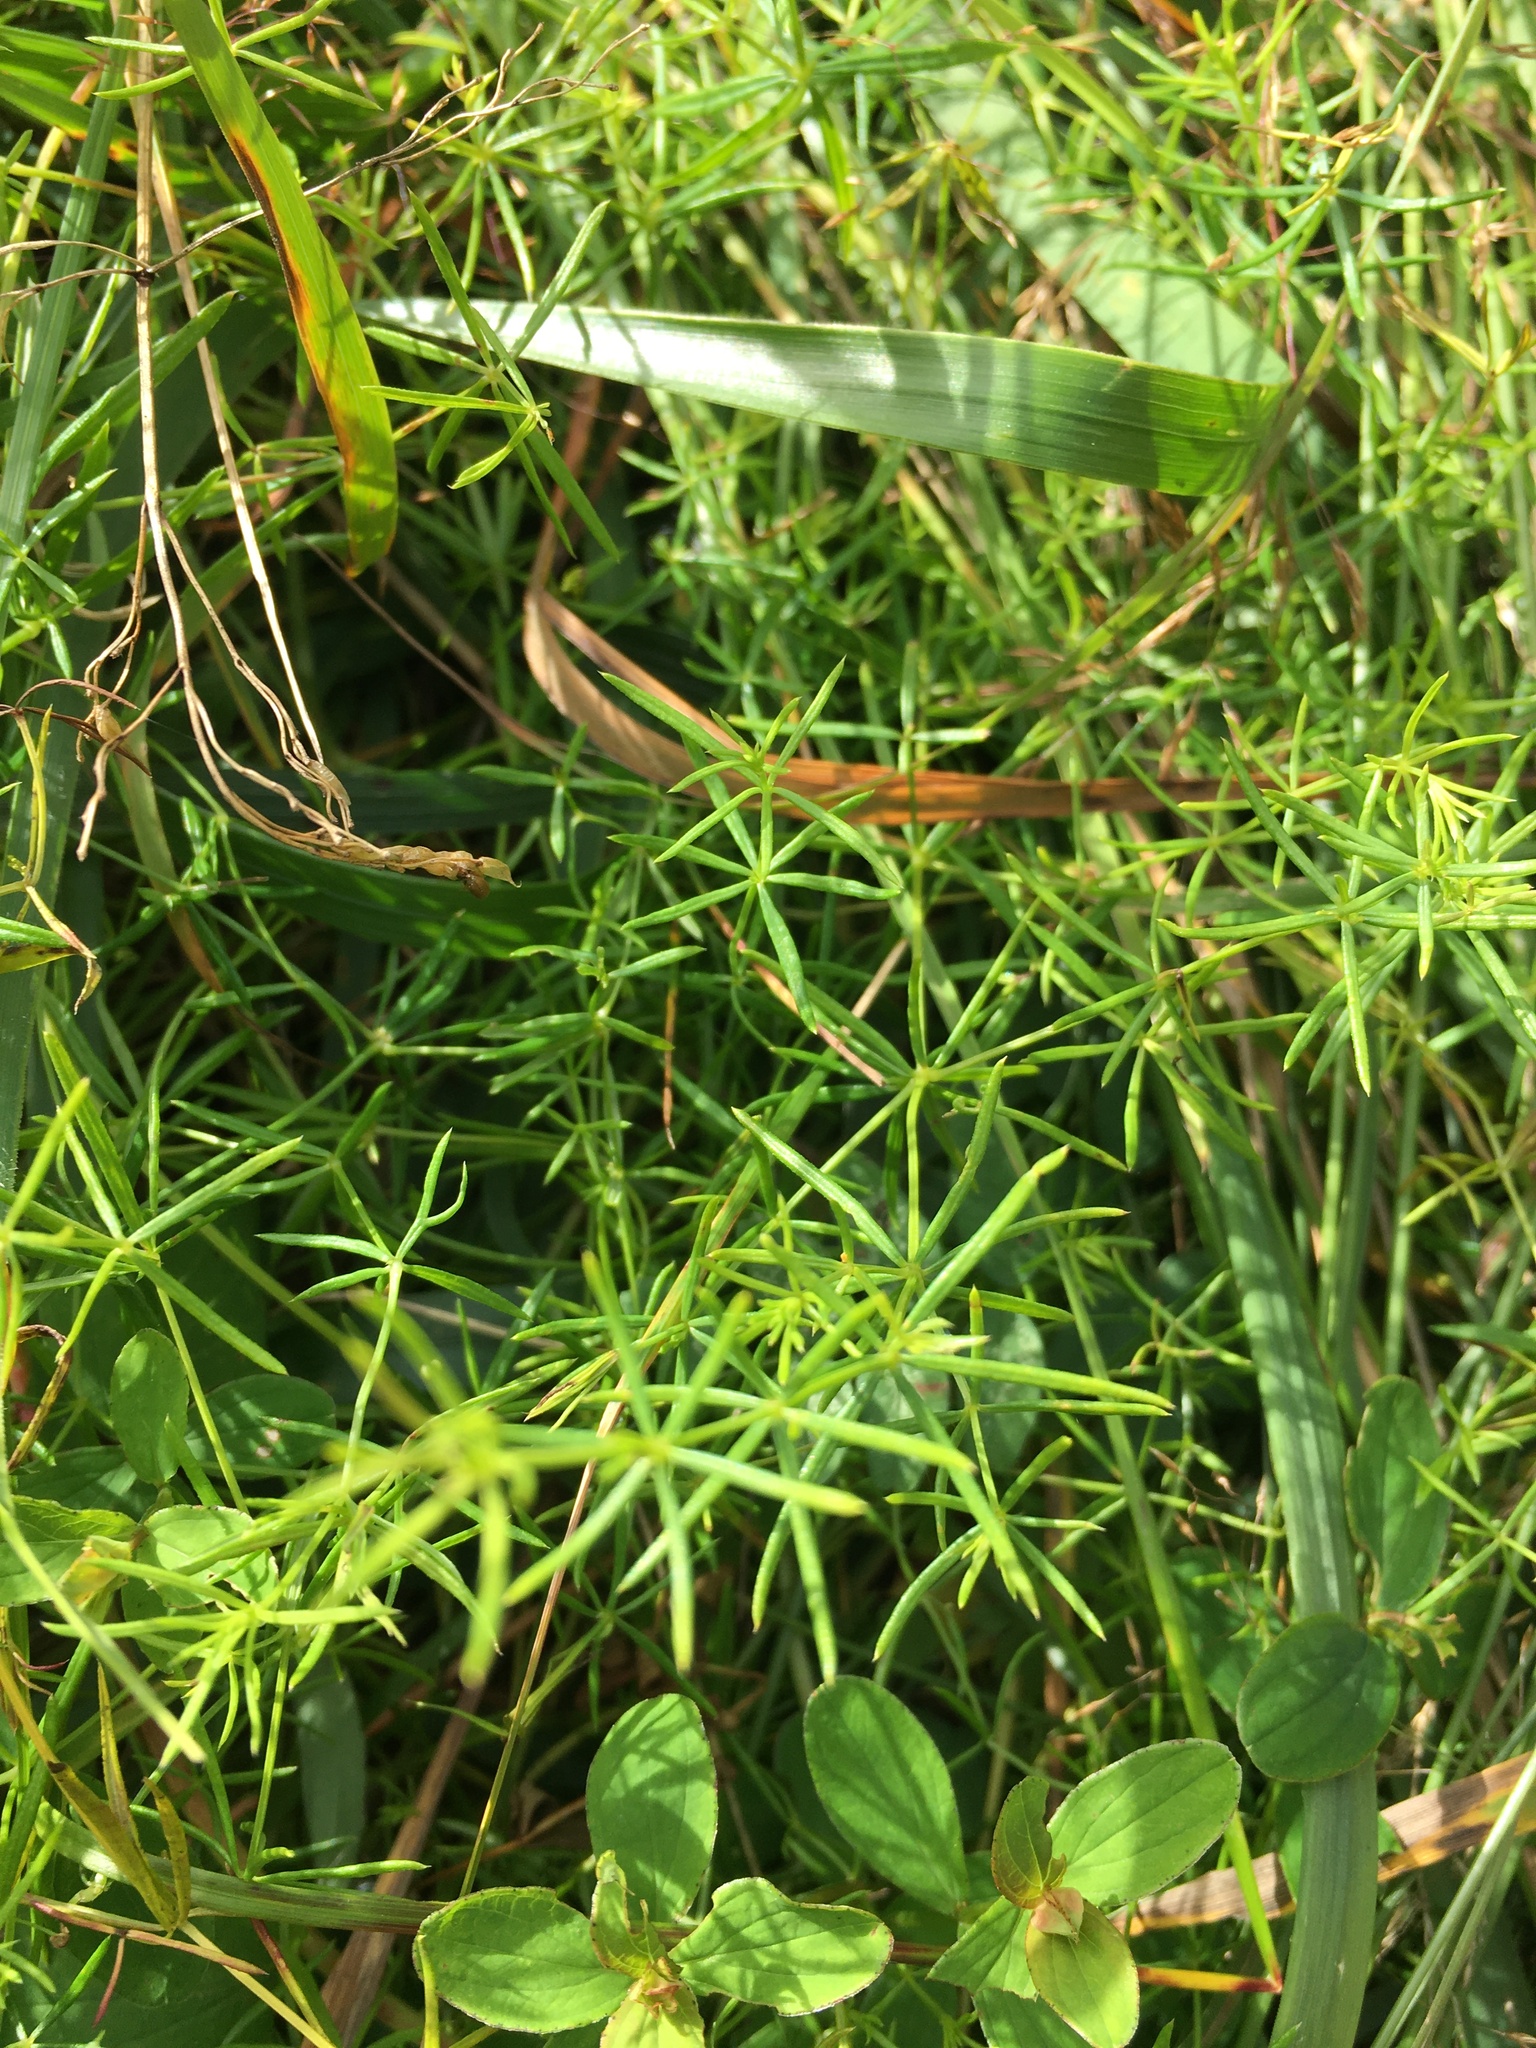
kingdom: Plantae
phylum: Tracheophyta
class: Magnoliopsida
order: Gentianales
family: Rubiaceae
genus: Galium
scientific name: Galium verum
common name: Lady's bedstraw
